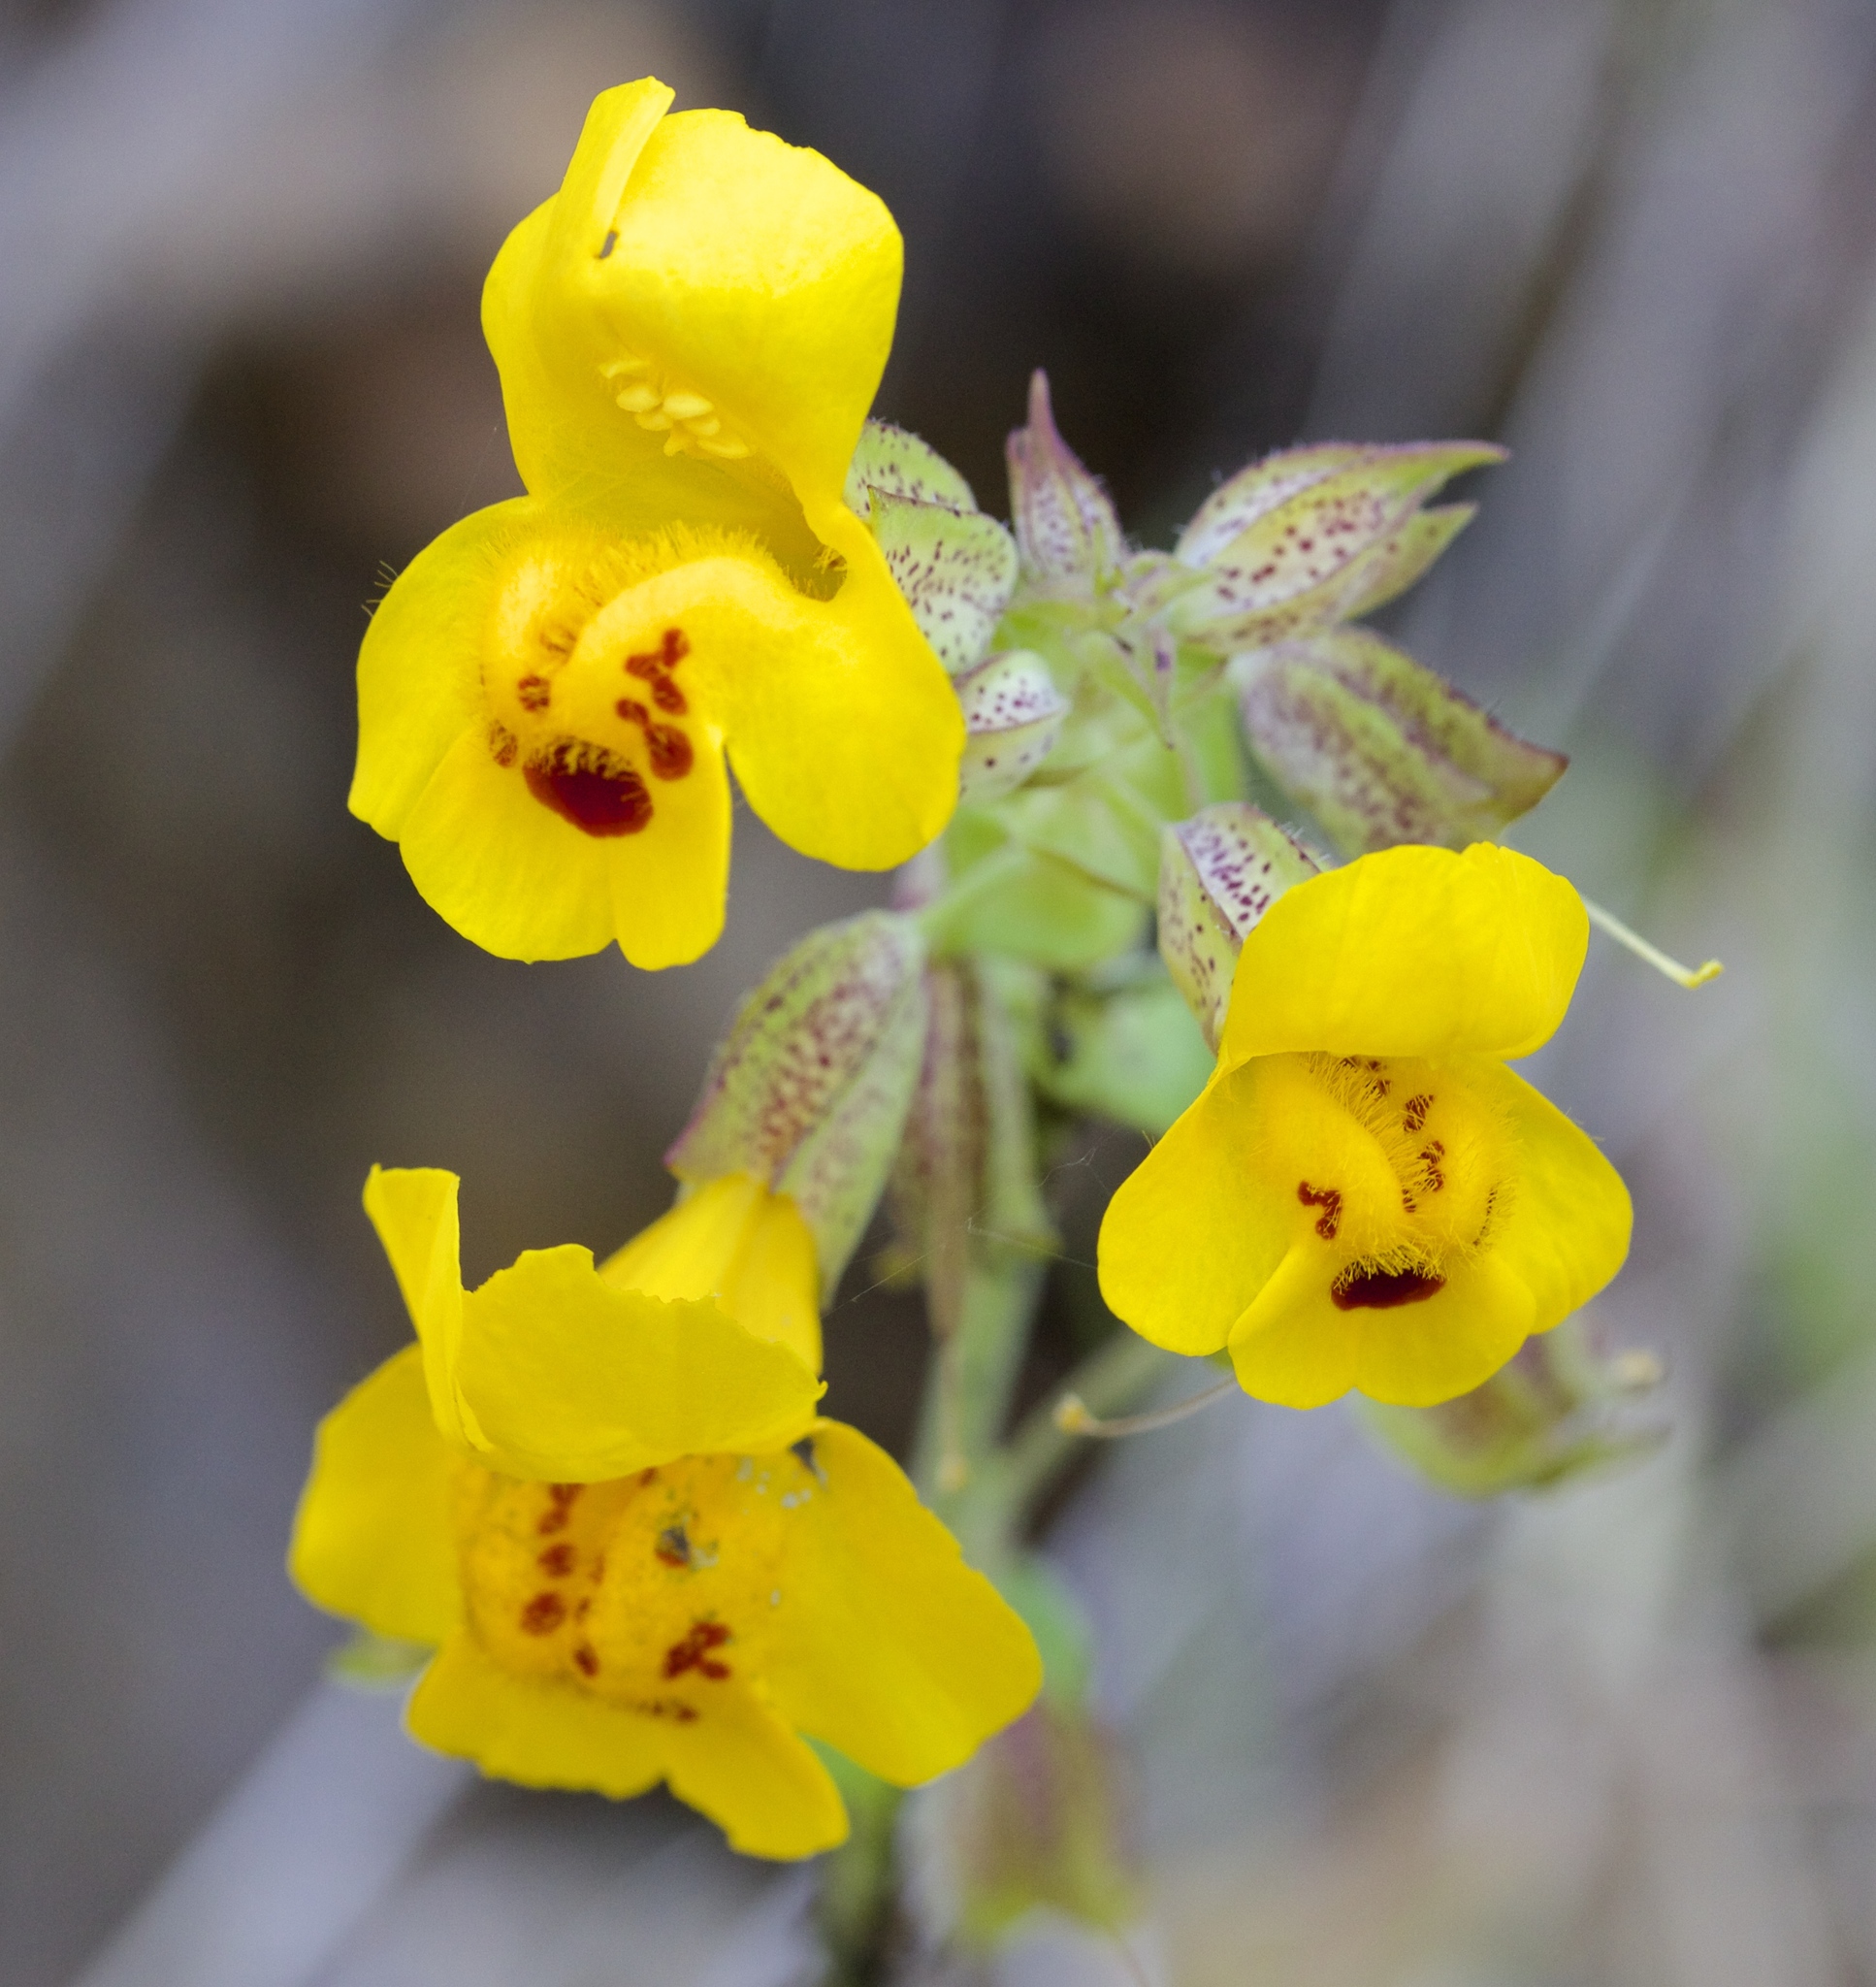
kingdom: Plantae
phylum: Tracheophyta
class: Magnoliopsida
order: Lamiales
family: Phrymaceae
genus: Erythranthe
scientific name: Erythranthe guttata
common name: Monkeyflower
